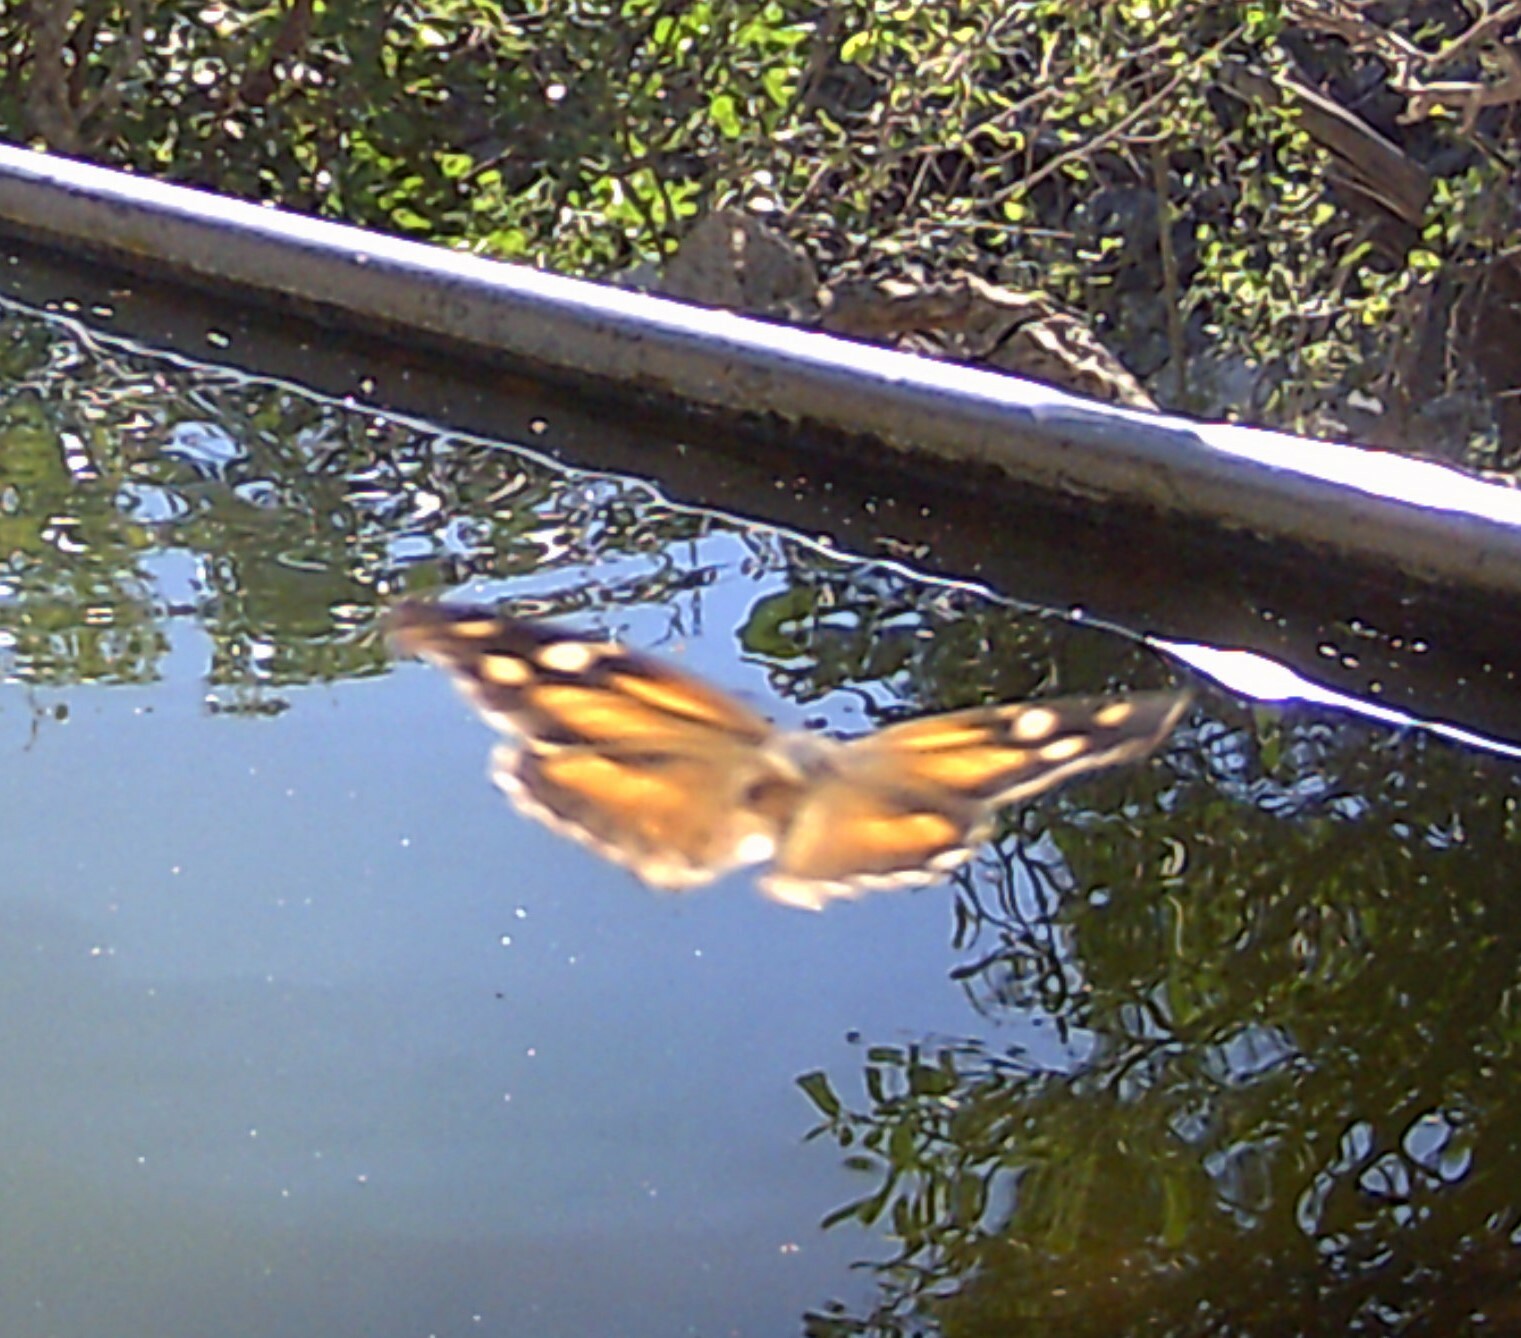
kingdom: Animalia
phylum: Arthropoda
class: Insecta
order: Lepidoptera
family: Nymphalidae
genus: Libytheana
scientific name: Libytheana carinenta
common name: American snout
